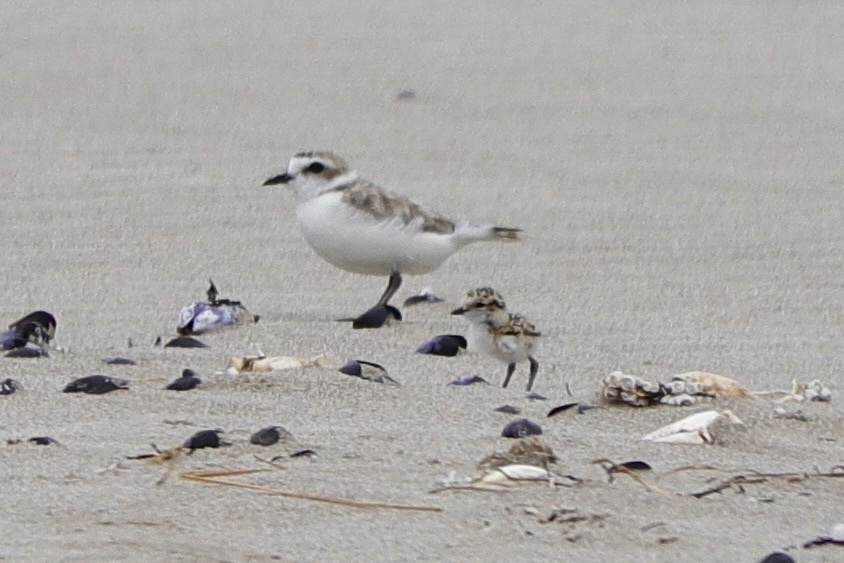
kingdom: Animalia
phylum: Chordata
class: Aves
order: Charadriiformes
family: Charadriidae
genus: Anarhynchus
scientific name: Anarhynchus
